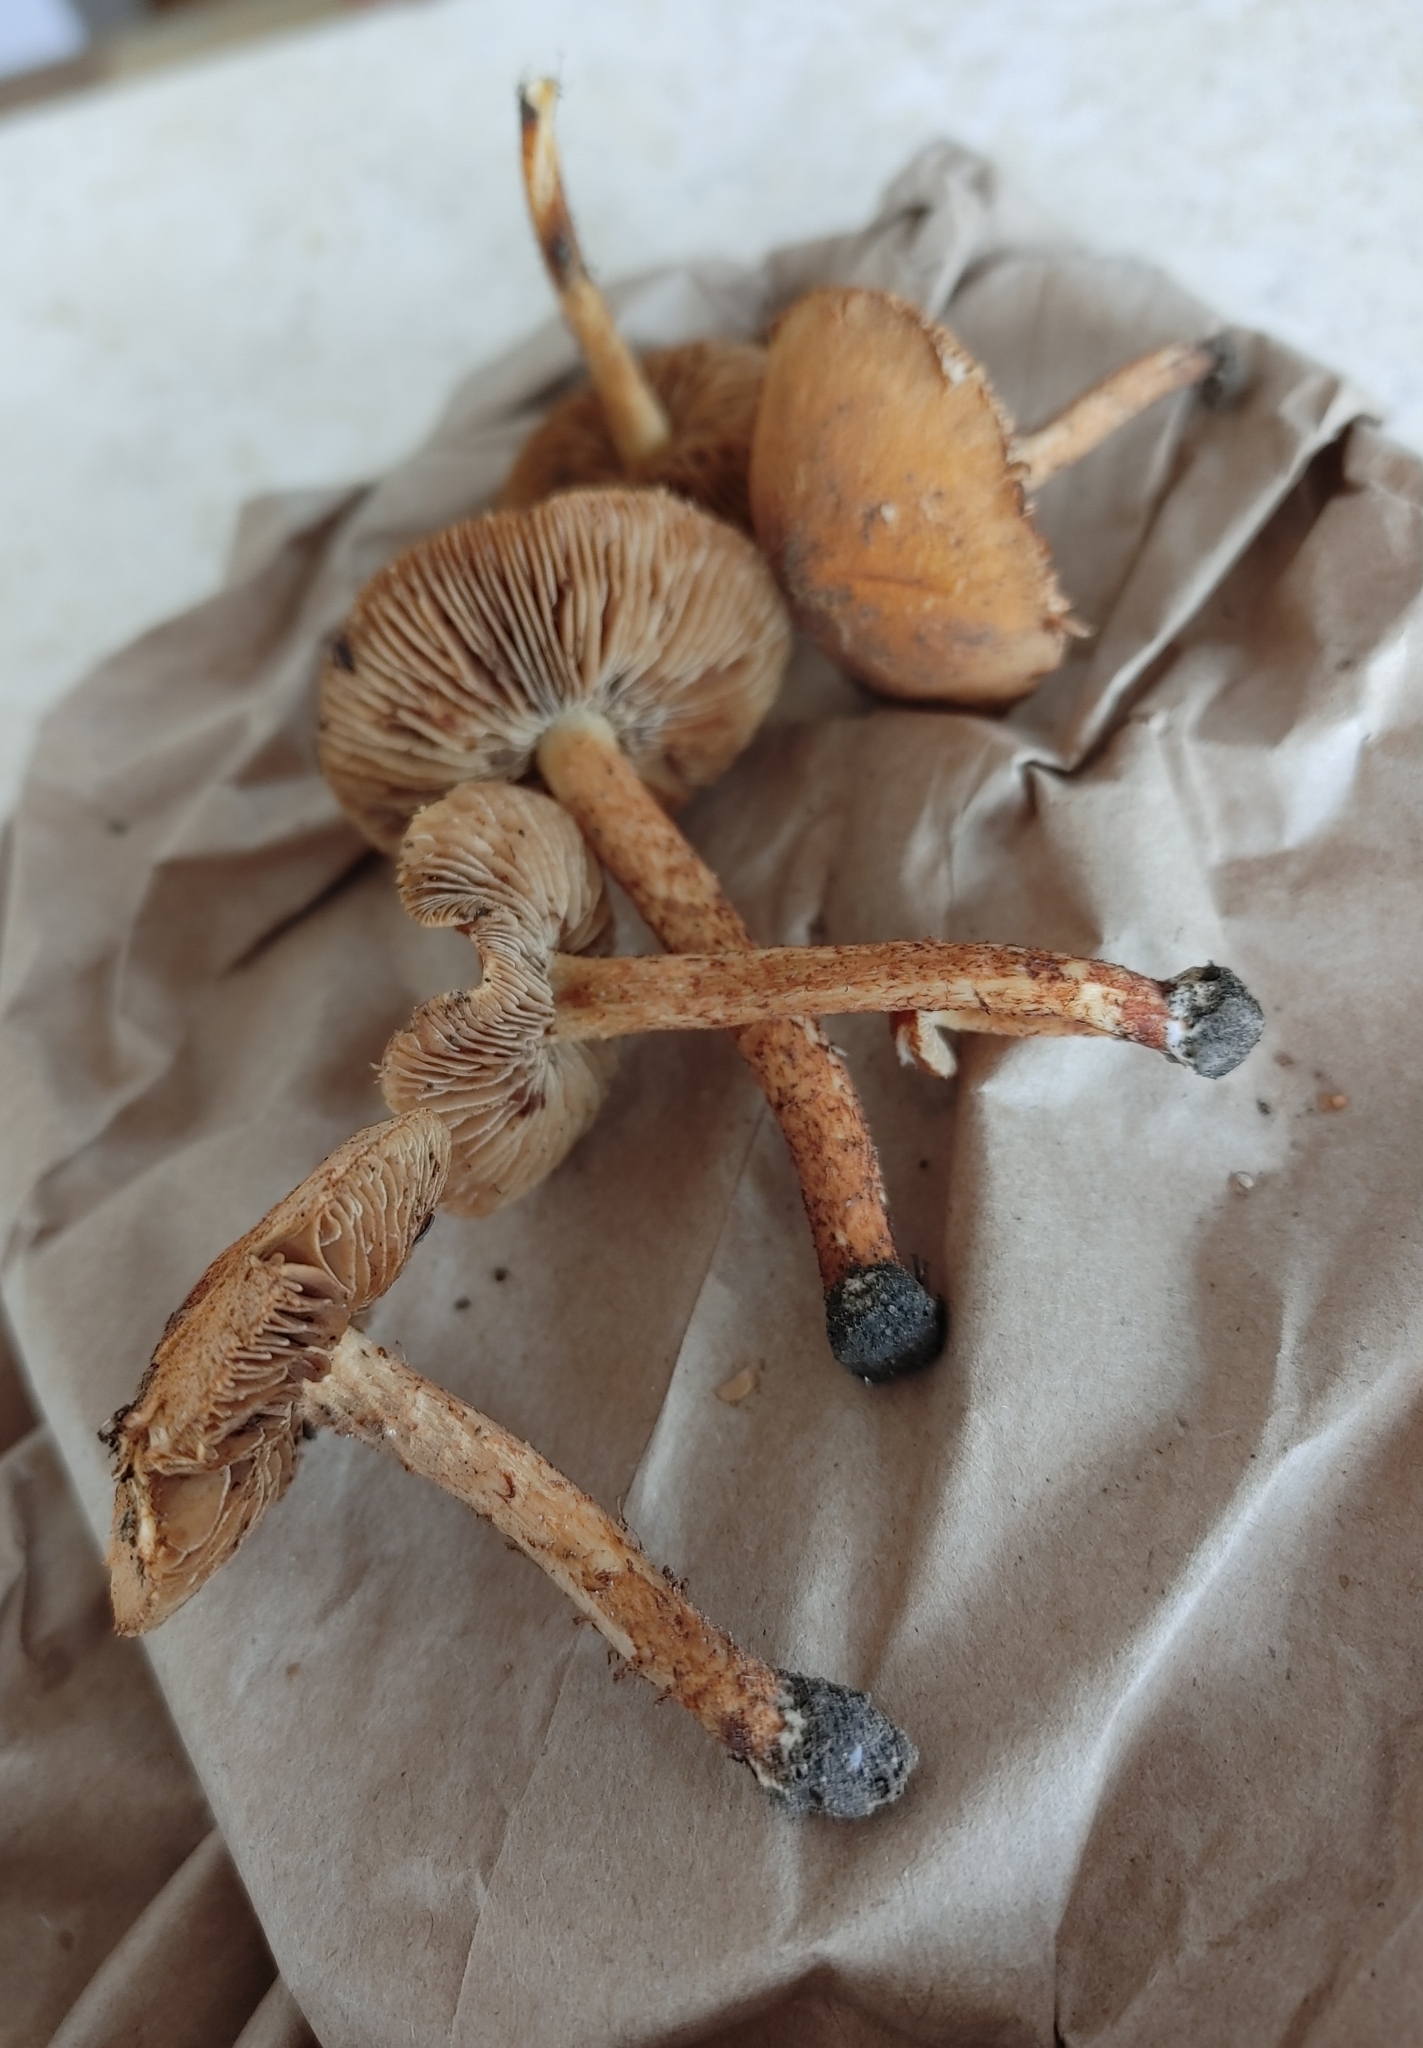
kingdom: Fungi
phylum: Basidiomycota
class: Agaricomycetes
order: Agaricales
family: Inocybaceae
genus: Mallocybe
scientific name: Mallocybe unicolor
